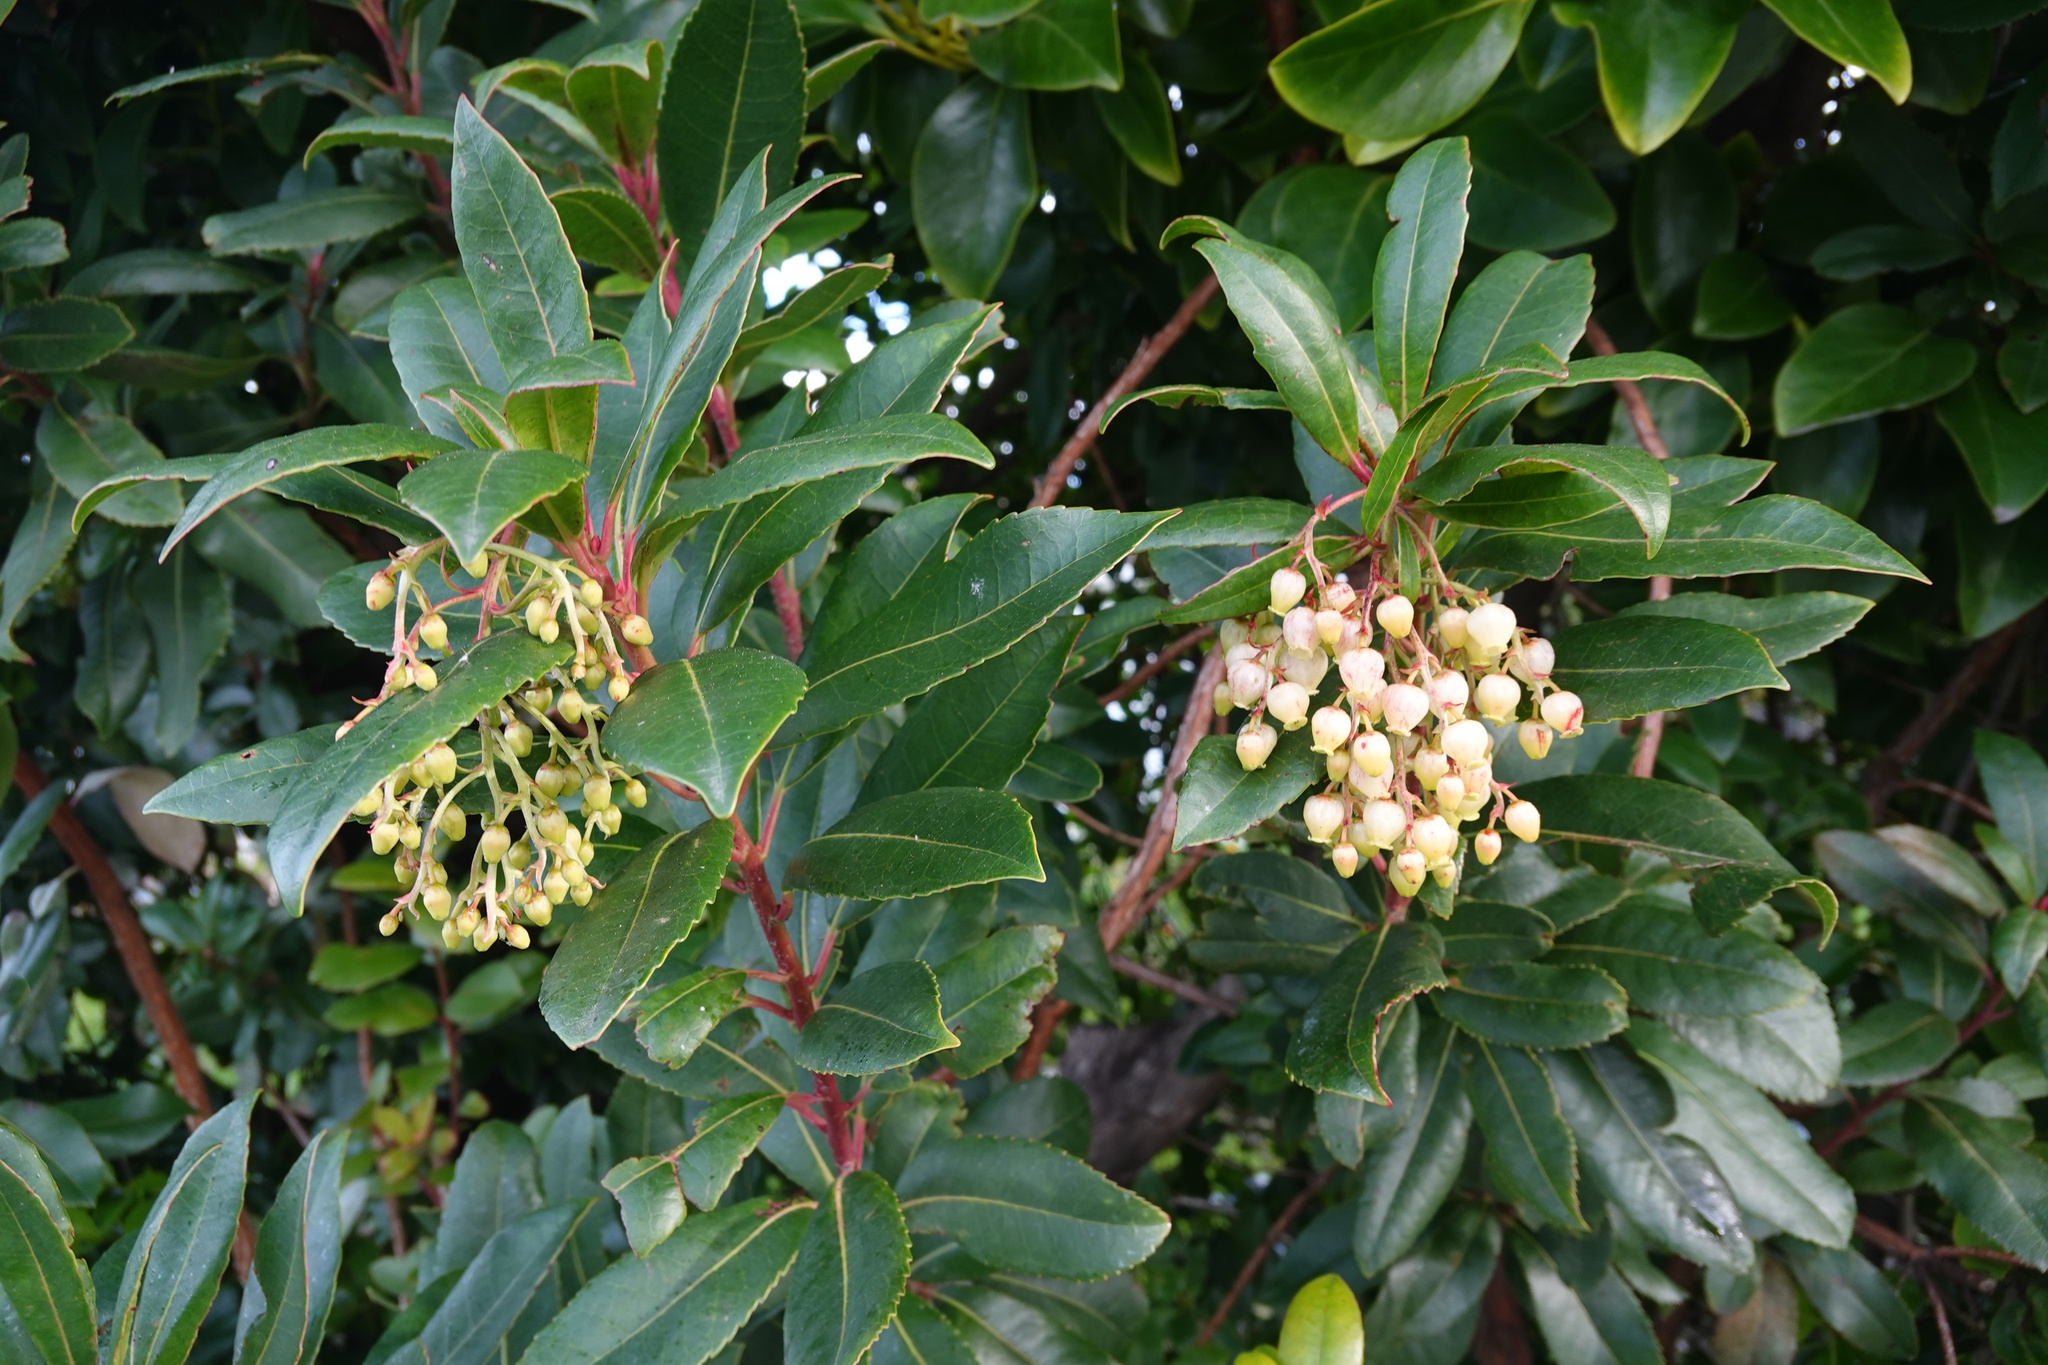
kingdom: Plantae
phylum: Tracheophyta
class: Magnoliopsida
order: Ericales
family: Ericaceae
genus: Arbutus
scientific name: Arbutus unedo
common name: Strawberry-tree
